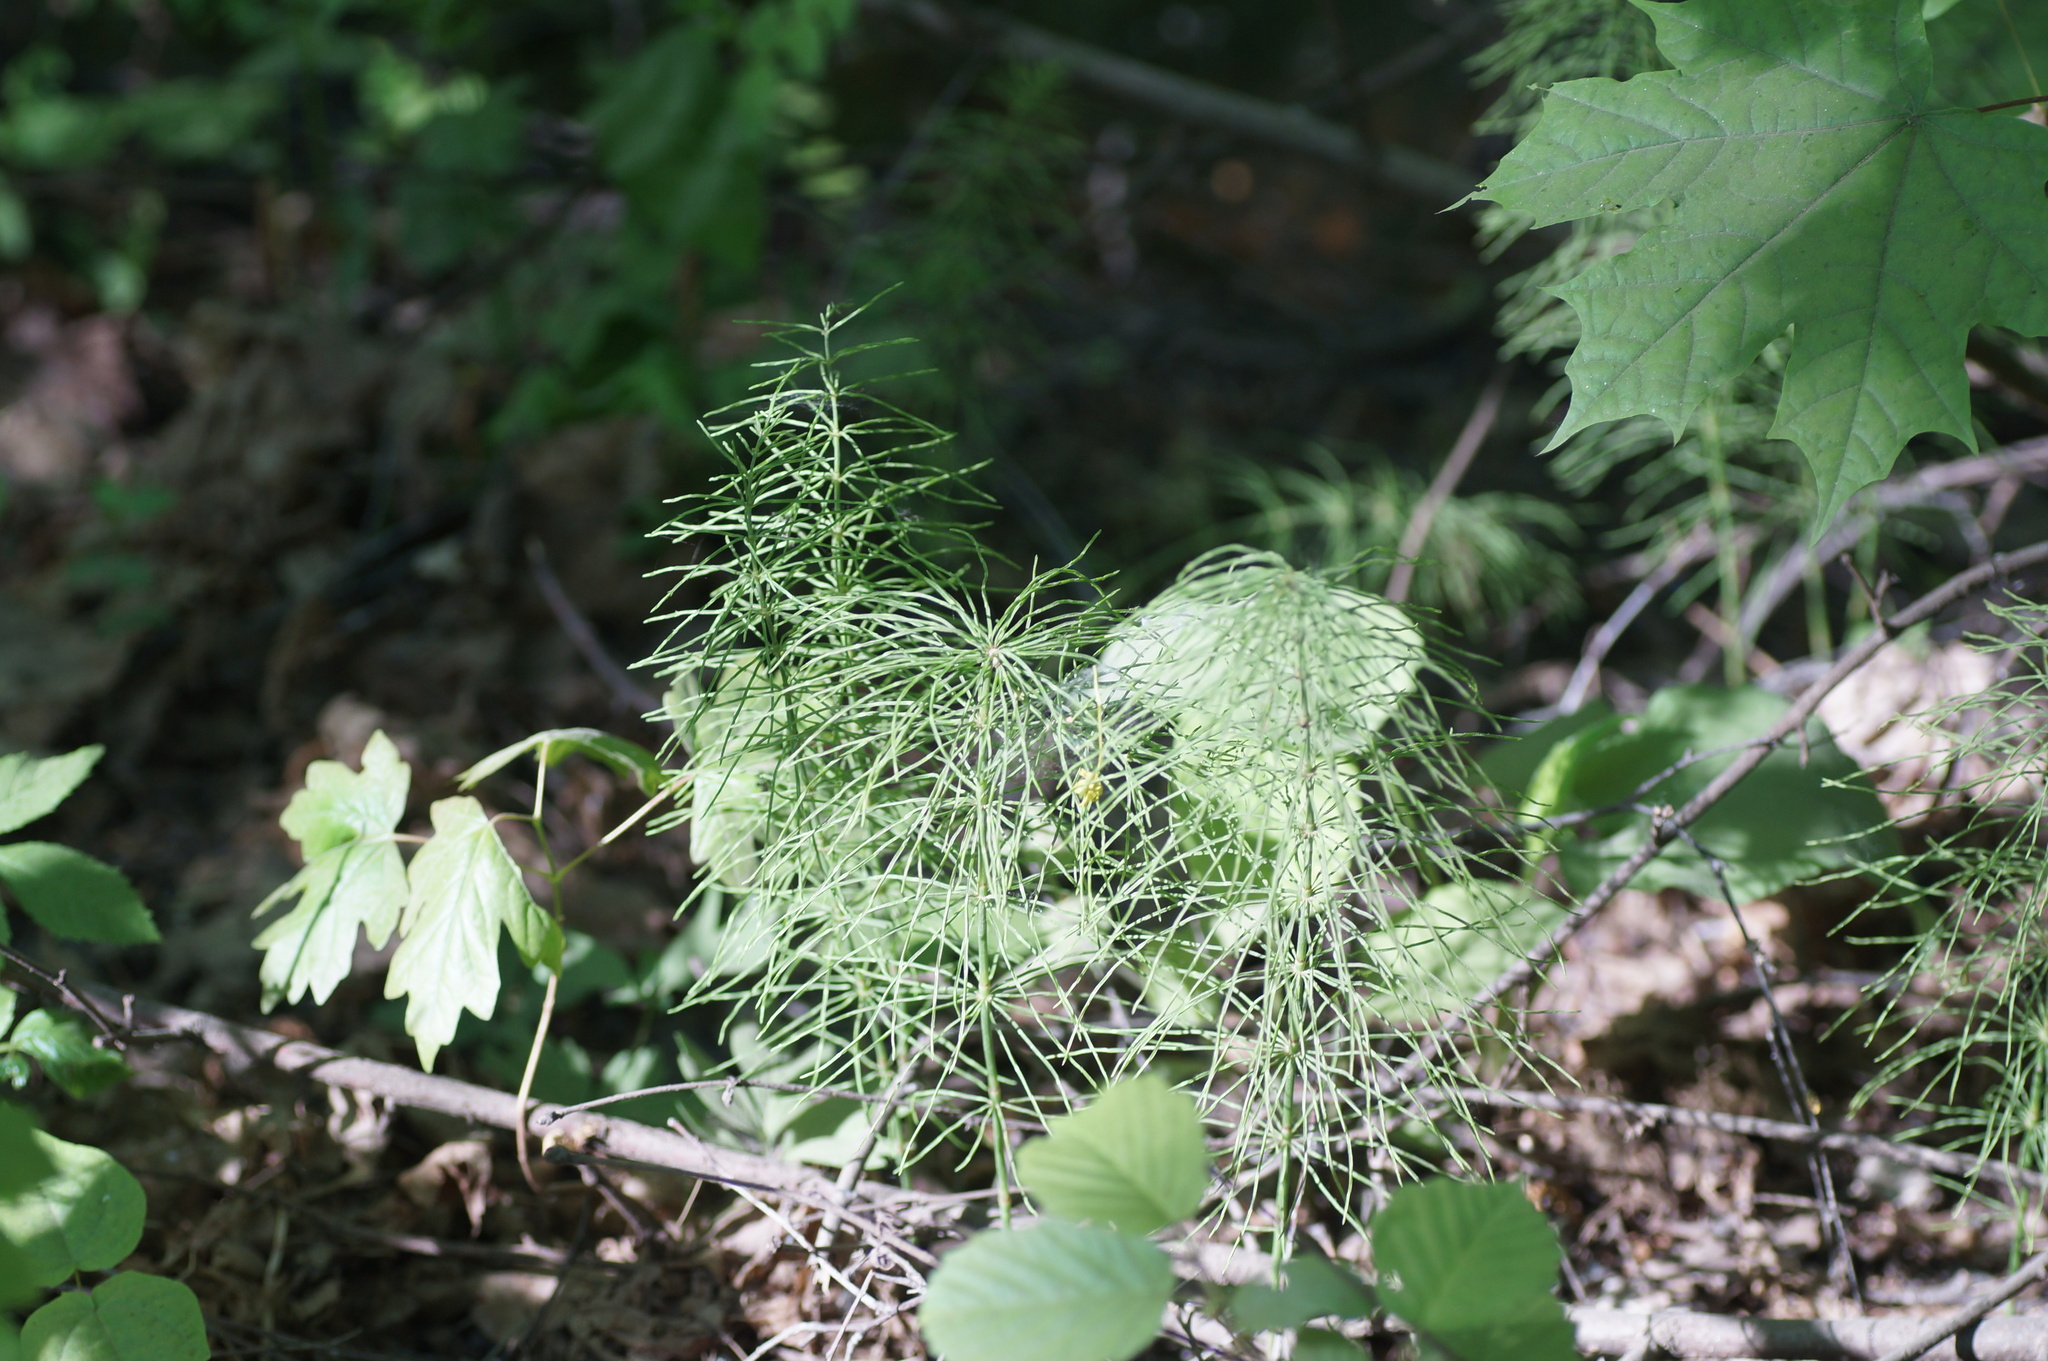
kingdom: Plantae
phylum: Tracheophyta
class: Polypodiopsida
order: Equisetales
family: Equisetaceae
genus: Equisetum
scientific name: Equisetum pratense
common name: Meadow horsetail
